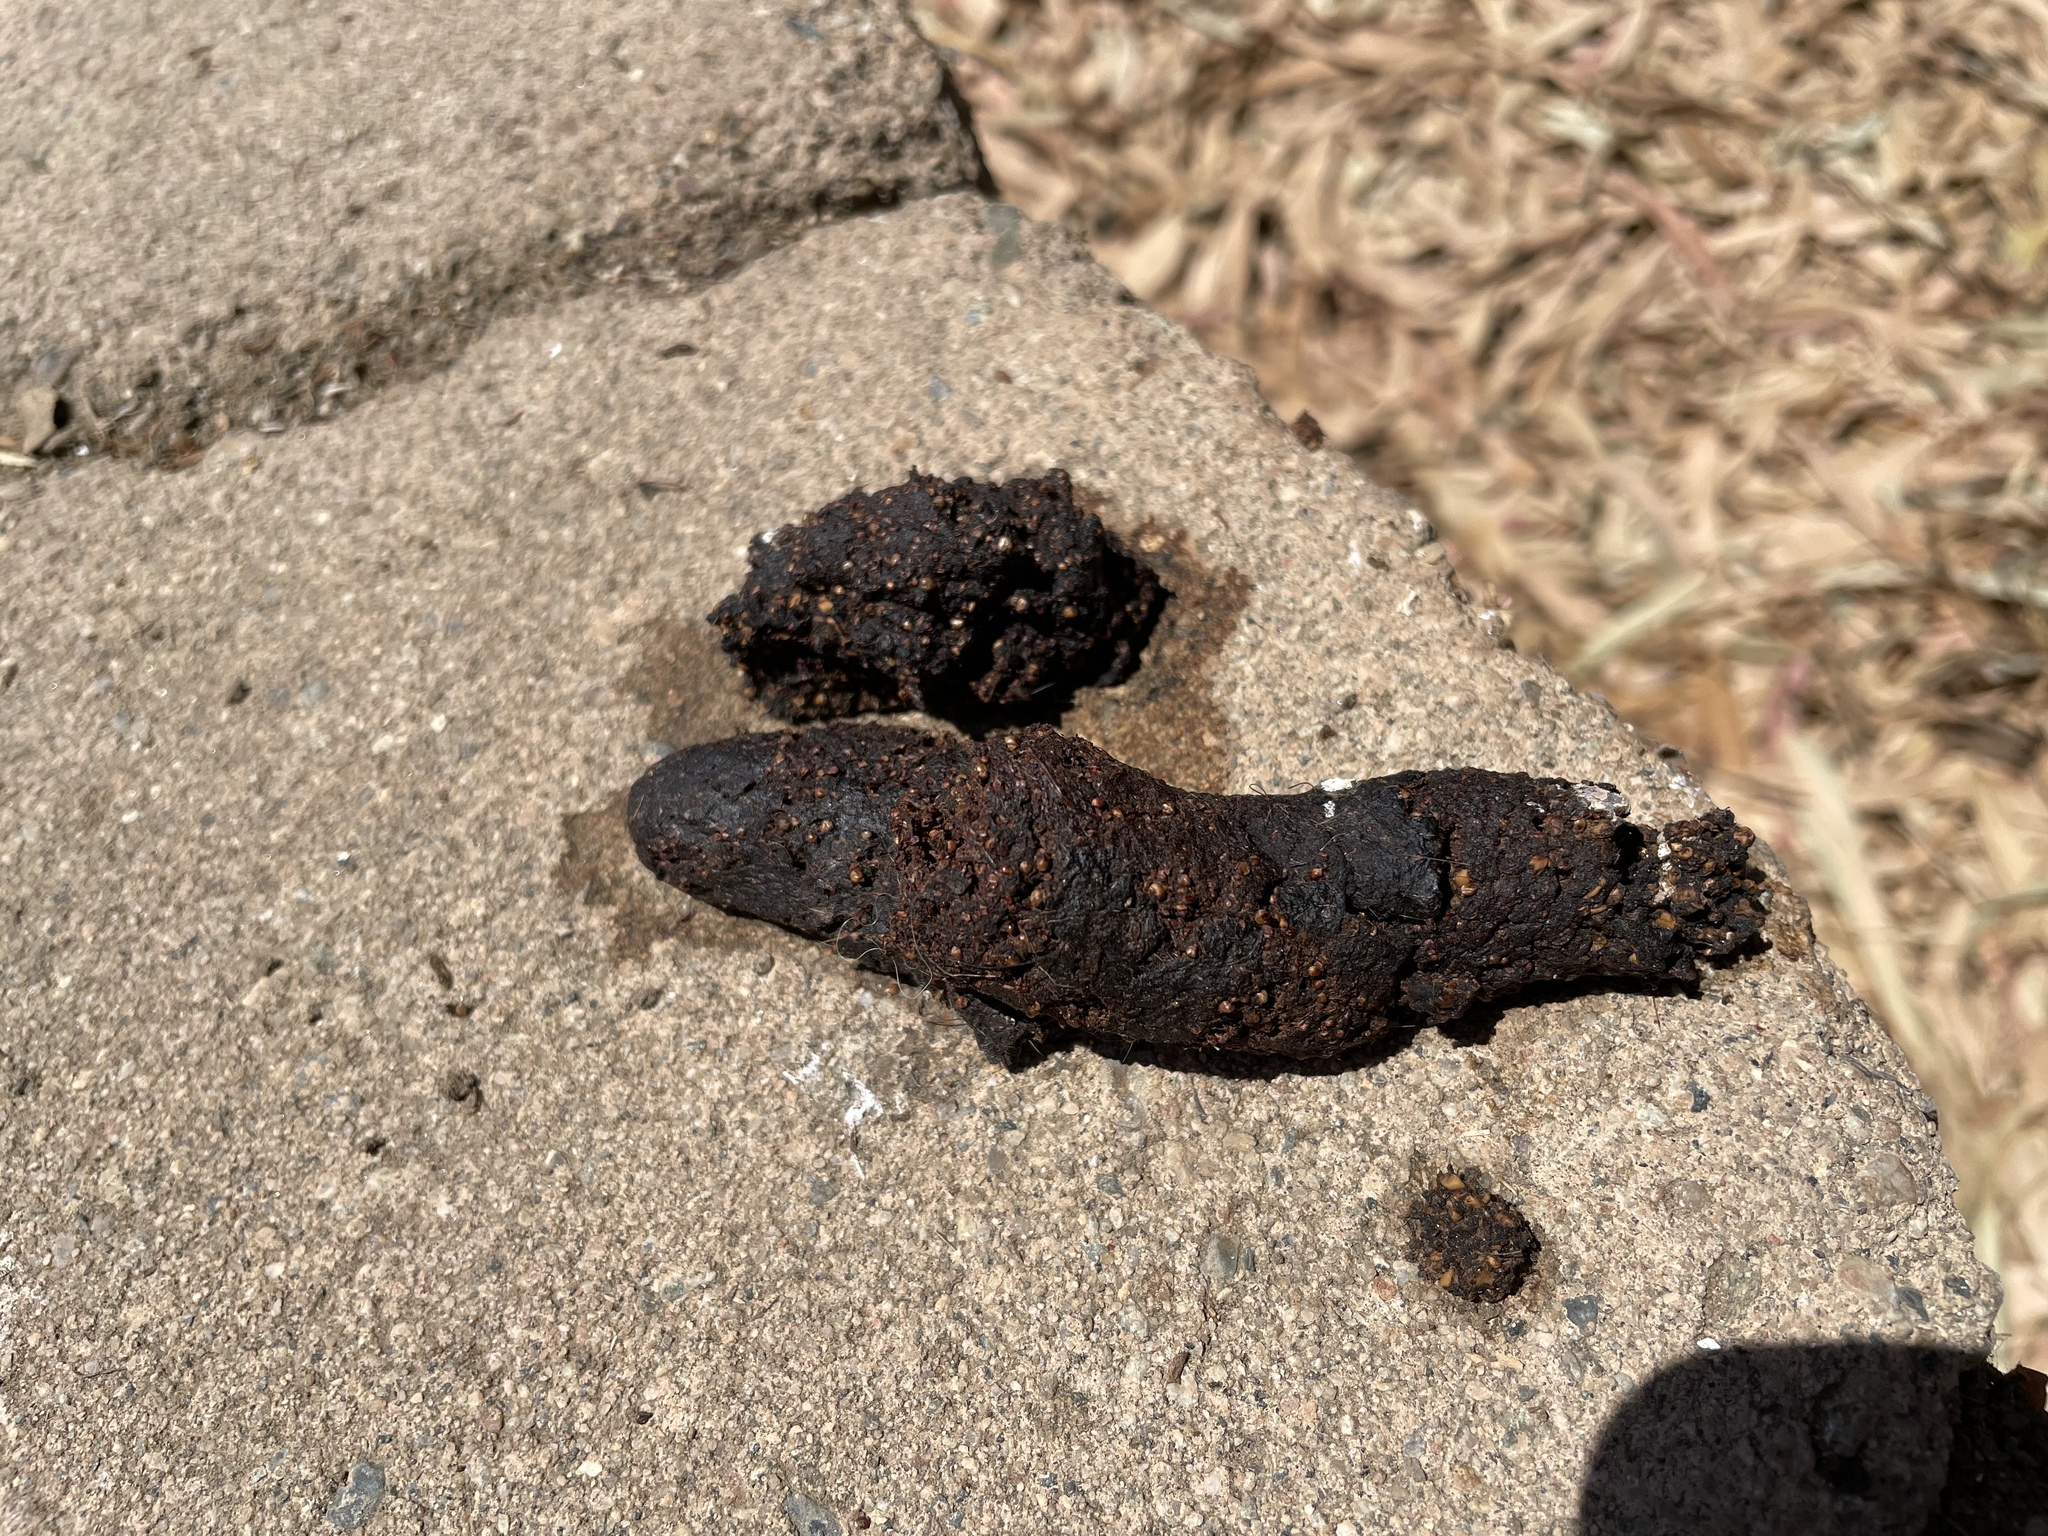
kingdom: Animalia
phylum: Chordata
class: Mammalia
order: Carnivora
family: Procyonidae
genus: Procyon
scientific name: Procyon lotor
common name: Raccoon
